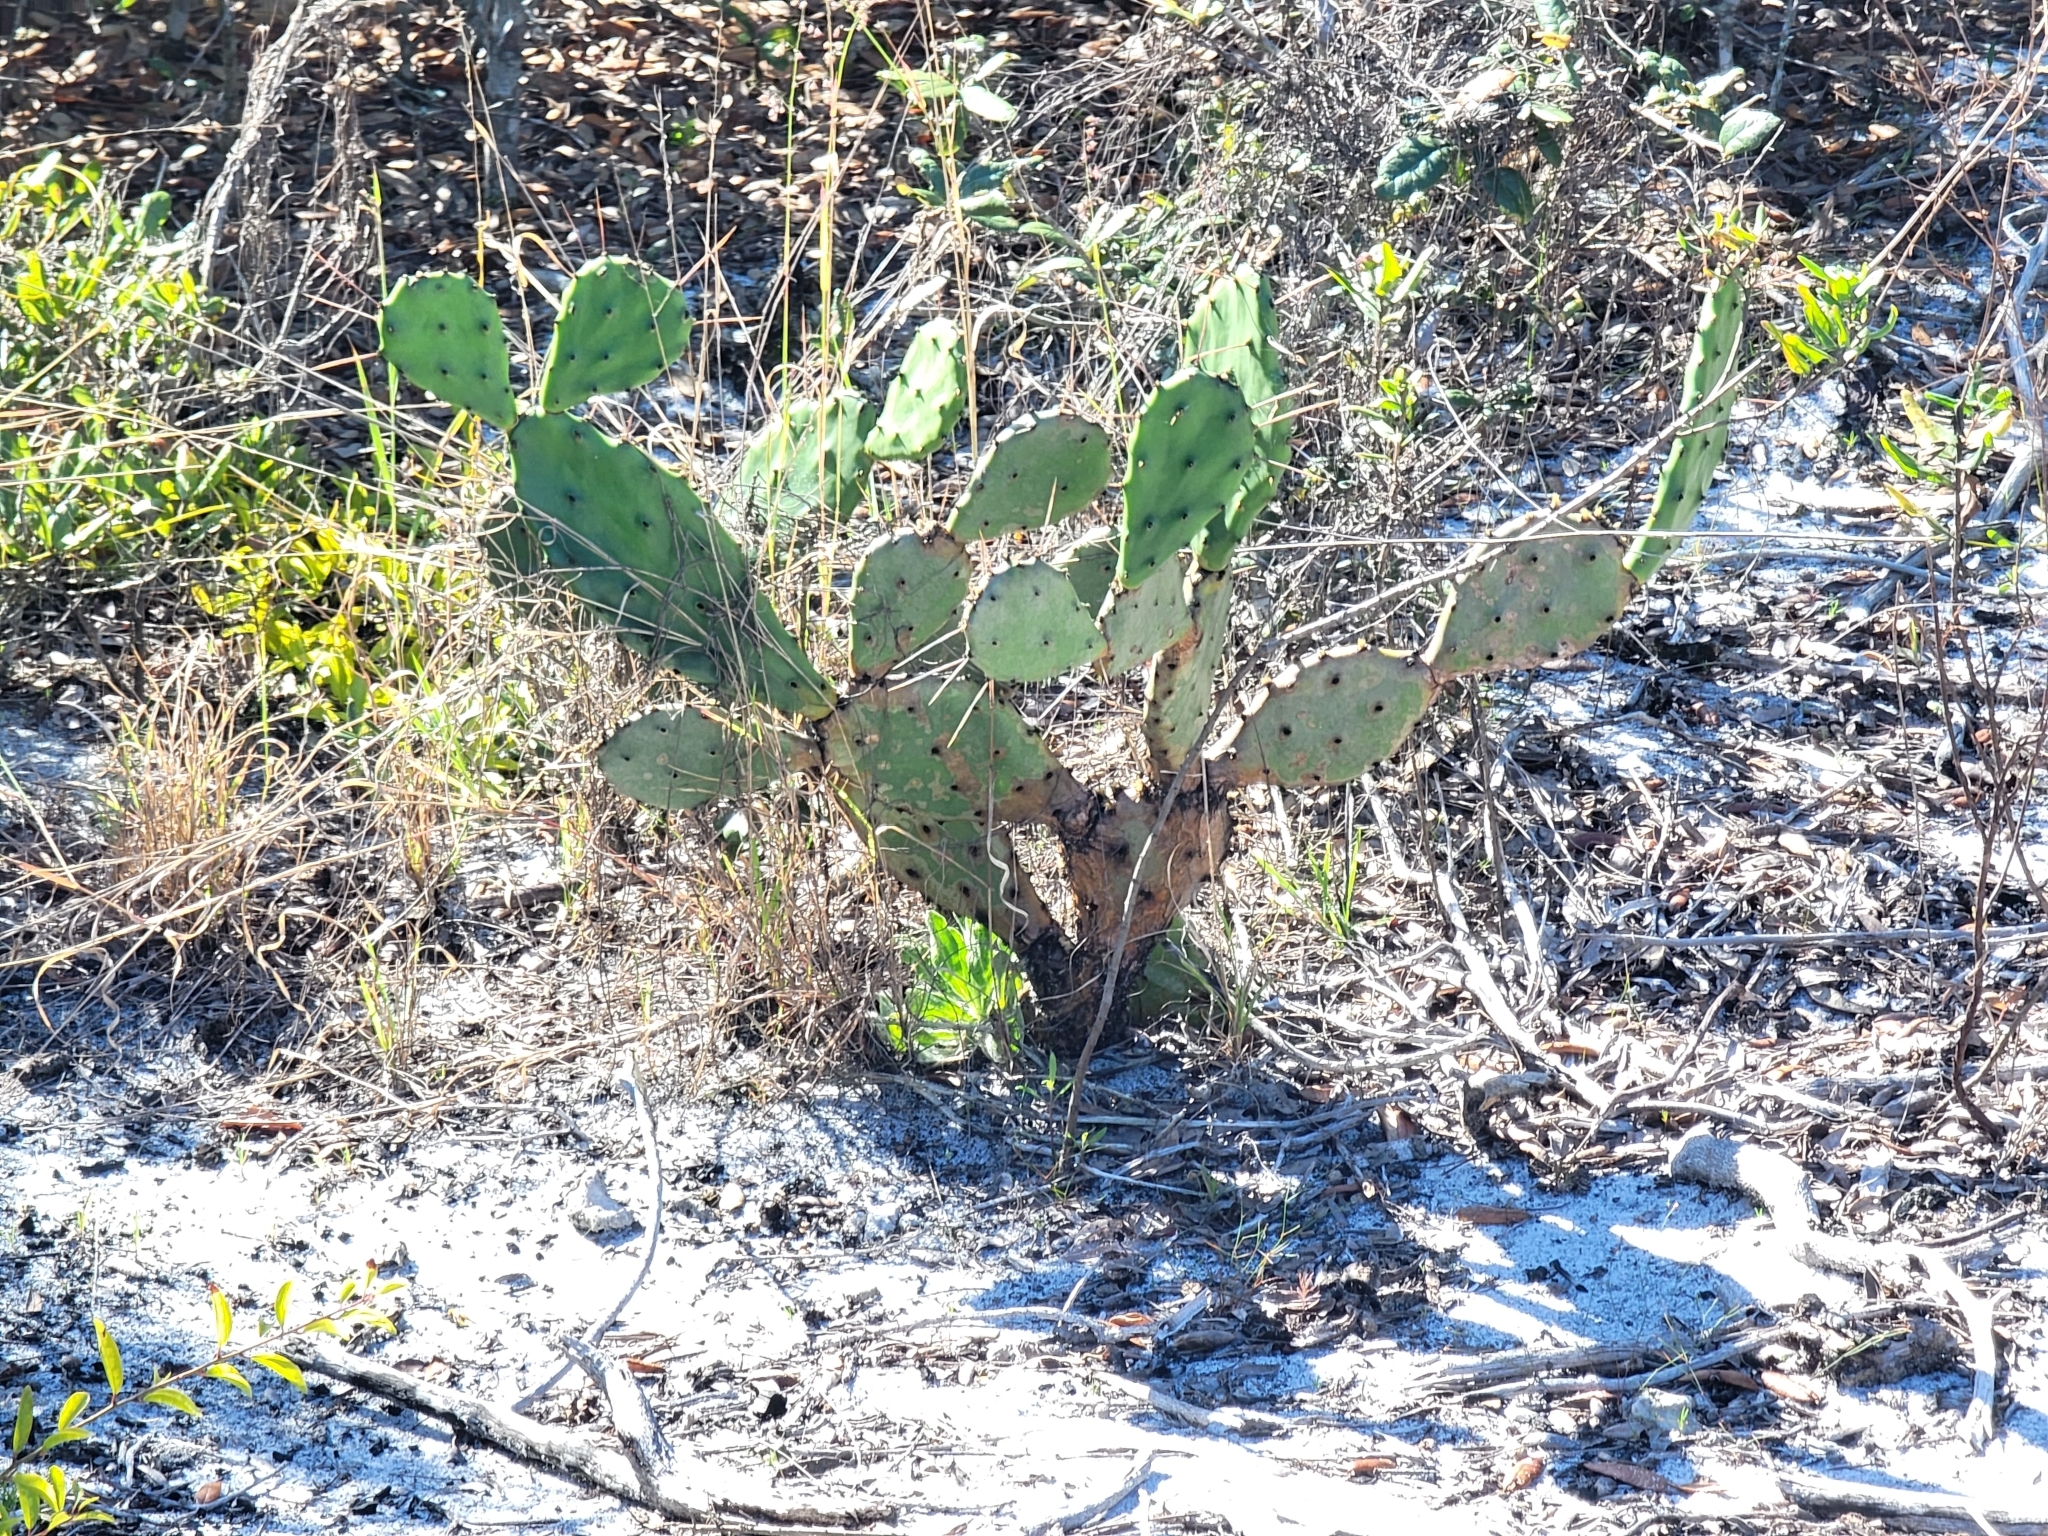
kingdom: Plantae
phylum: Tracheophyta
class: Magnoliopsida
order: Caryophyllales
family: Cactaceae
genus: Opuntia
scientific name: Opuntia austrina
